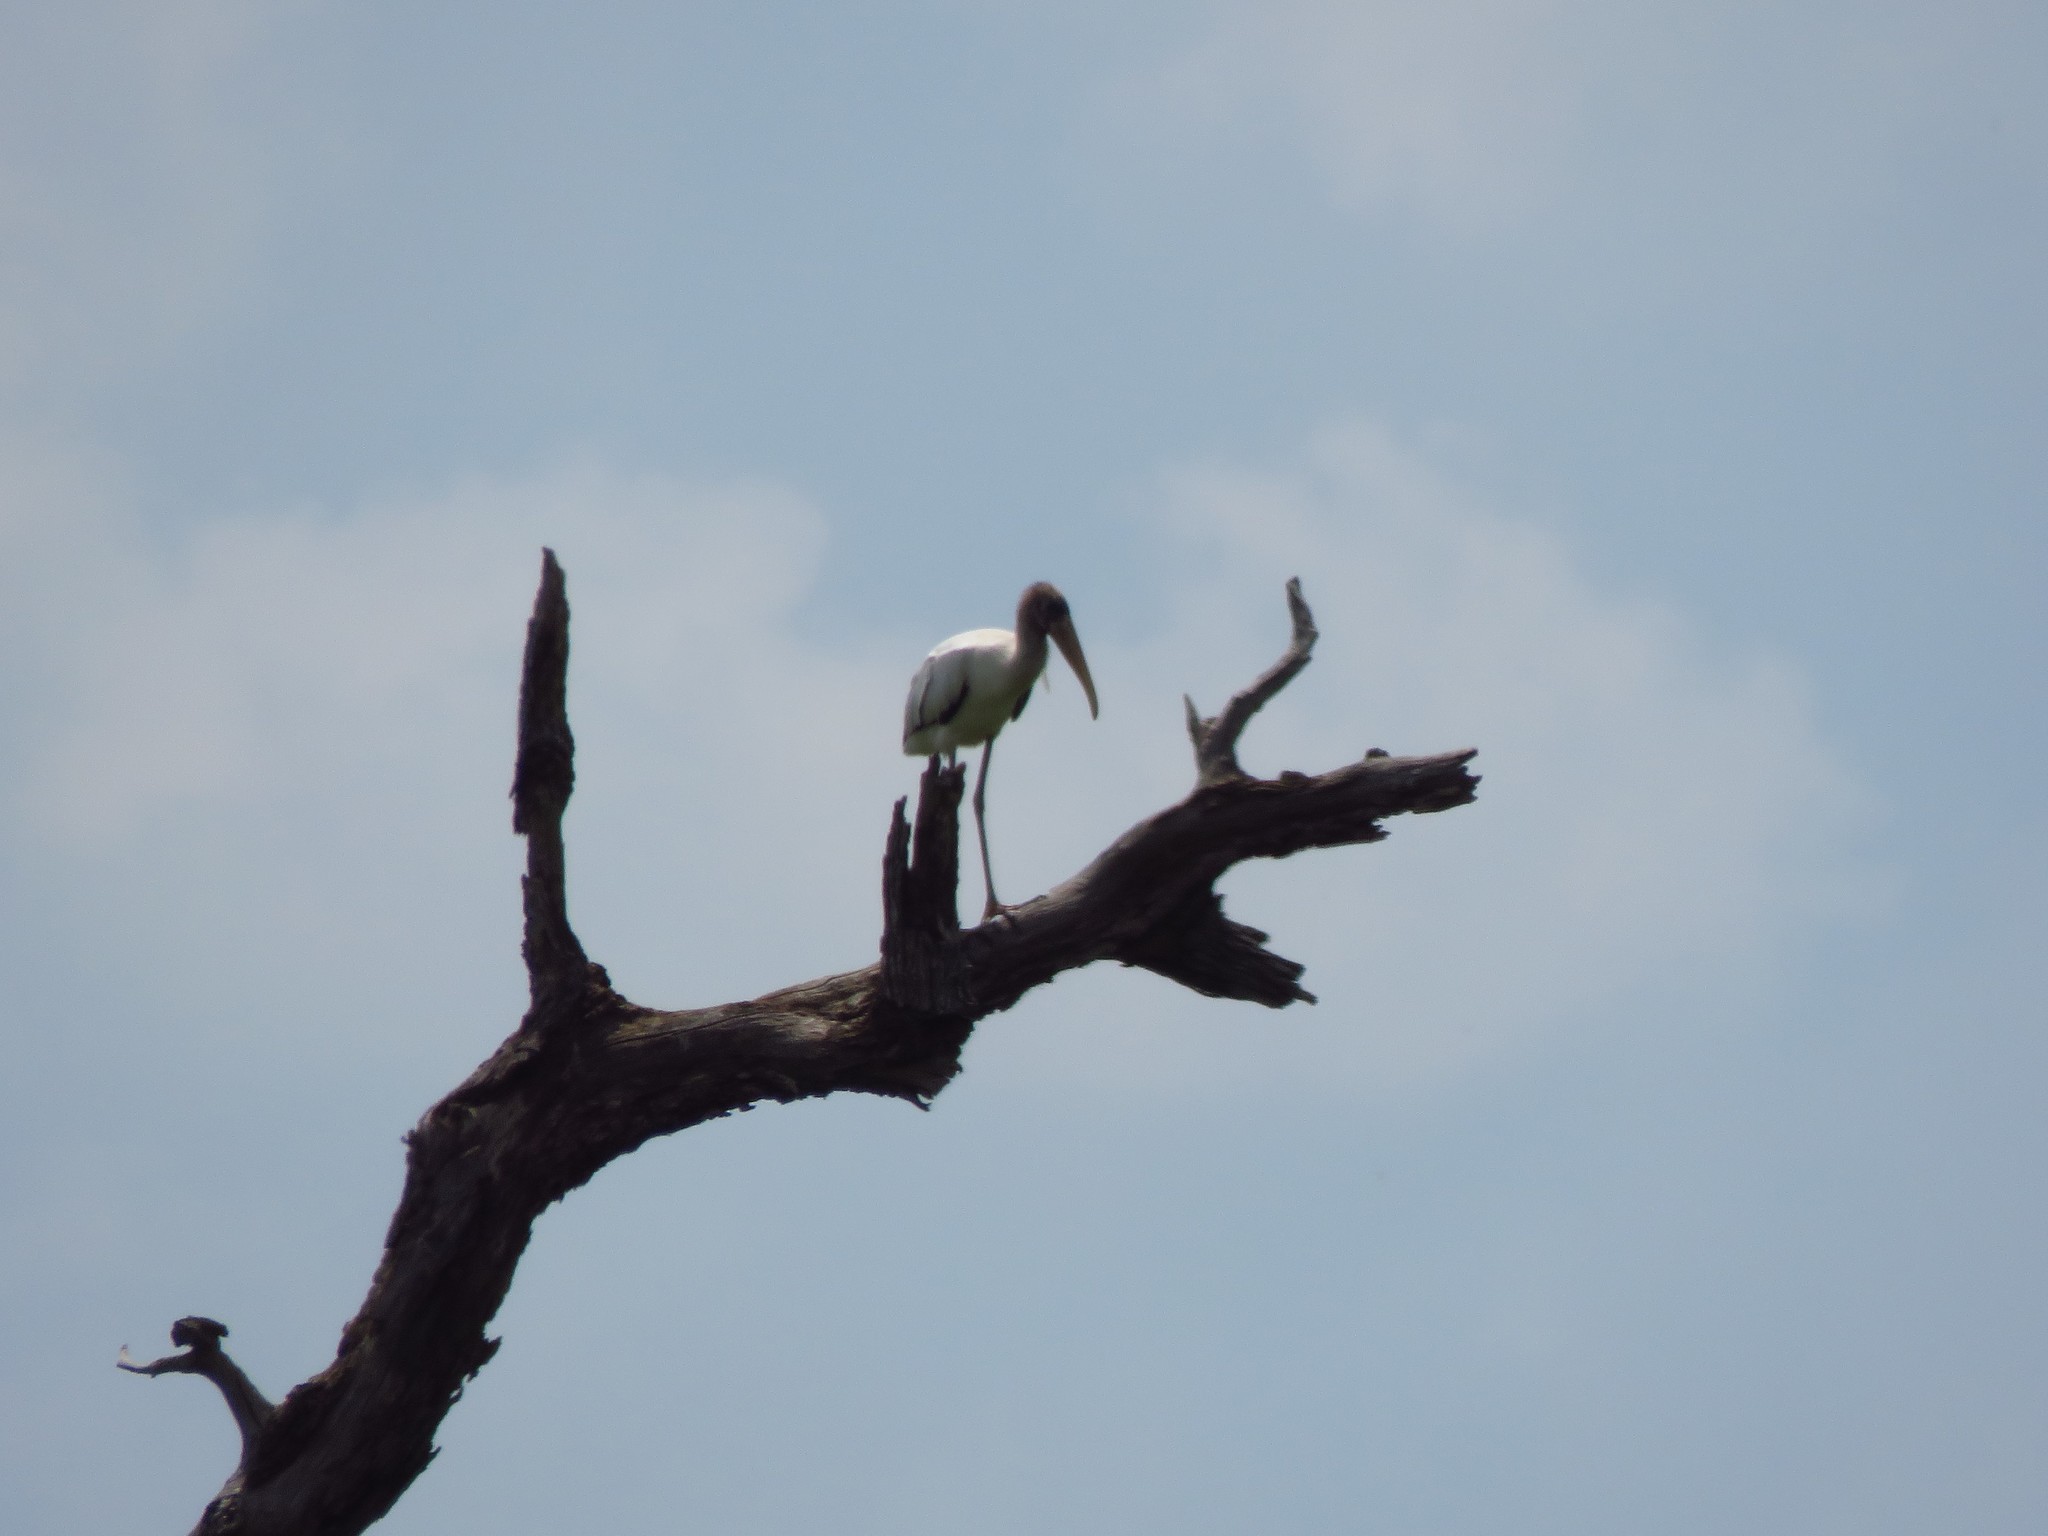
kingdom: Animalia
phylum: Chordata
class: Aves
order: Ciconiiformes
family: Ciconiidae
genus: Mycteria
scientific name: Mycteria americana
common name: Wood stork
